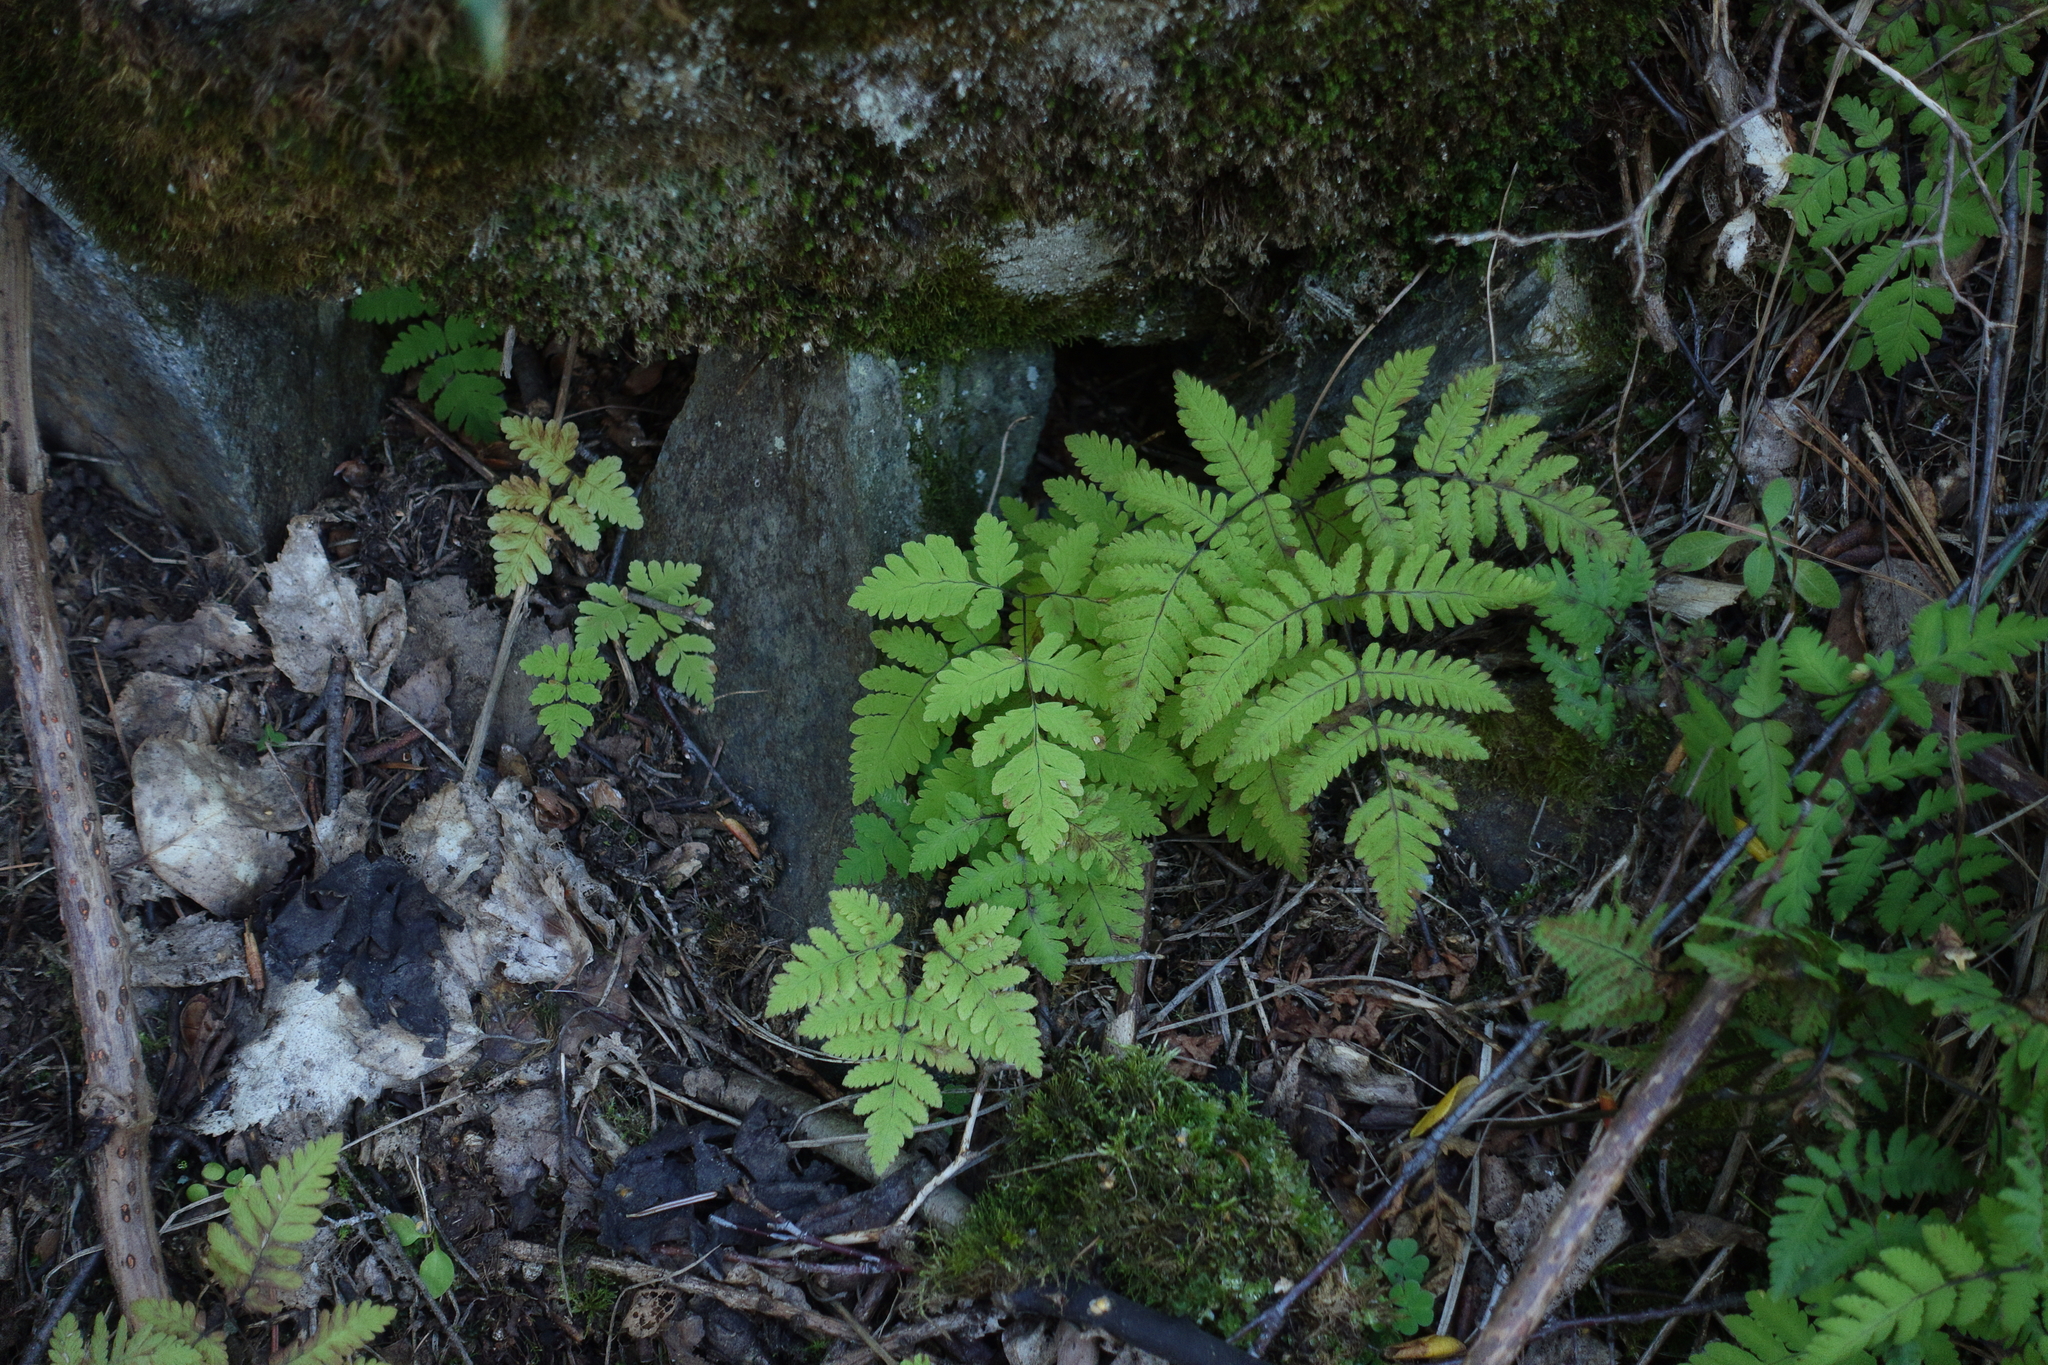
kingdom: Plantae
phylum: Tracheophyta
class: Polypodiopsida
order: Polypodiales
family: Cystopteridaceae
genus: Gymnocarpium
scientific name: Gymnocarpium dryopteris
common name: Oak fern
